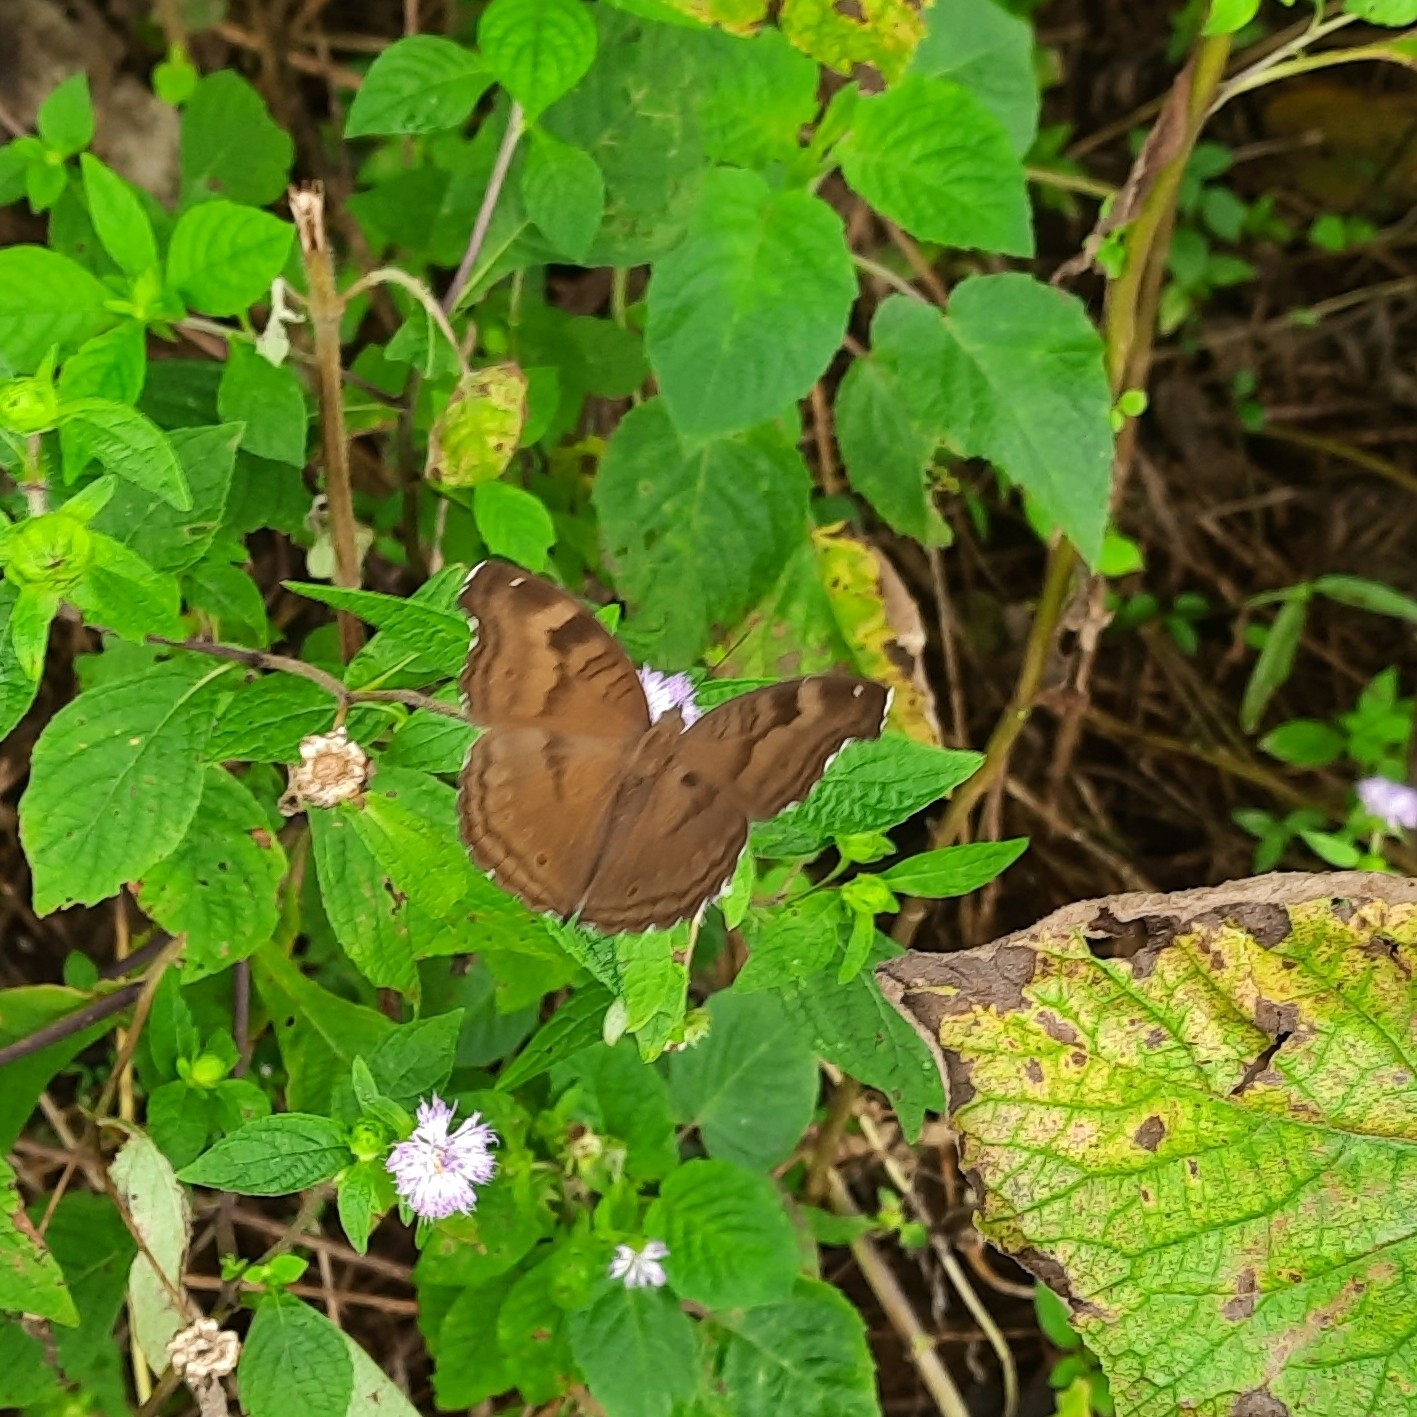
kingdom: Animalia
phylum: Arthropoda
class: Insecta
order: Lepidoptera
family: Nymphalidae
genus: Junonia
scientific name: Junonia iphita
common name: Chocolate pansy
